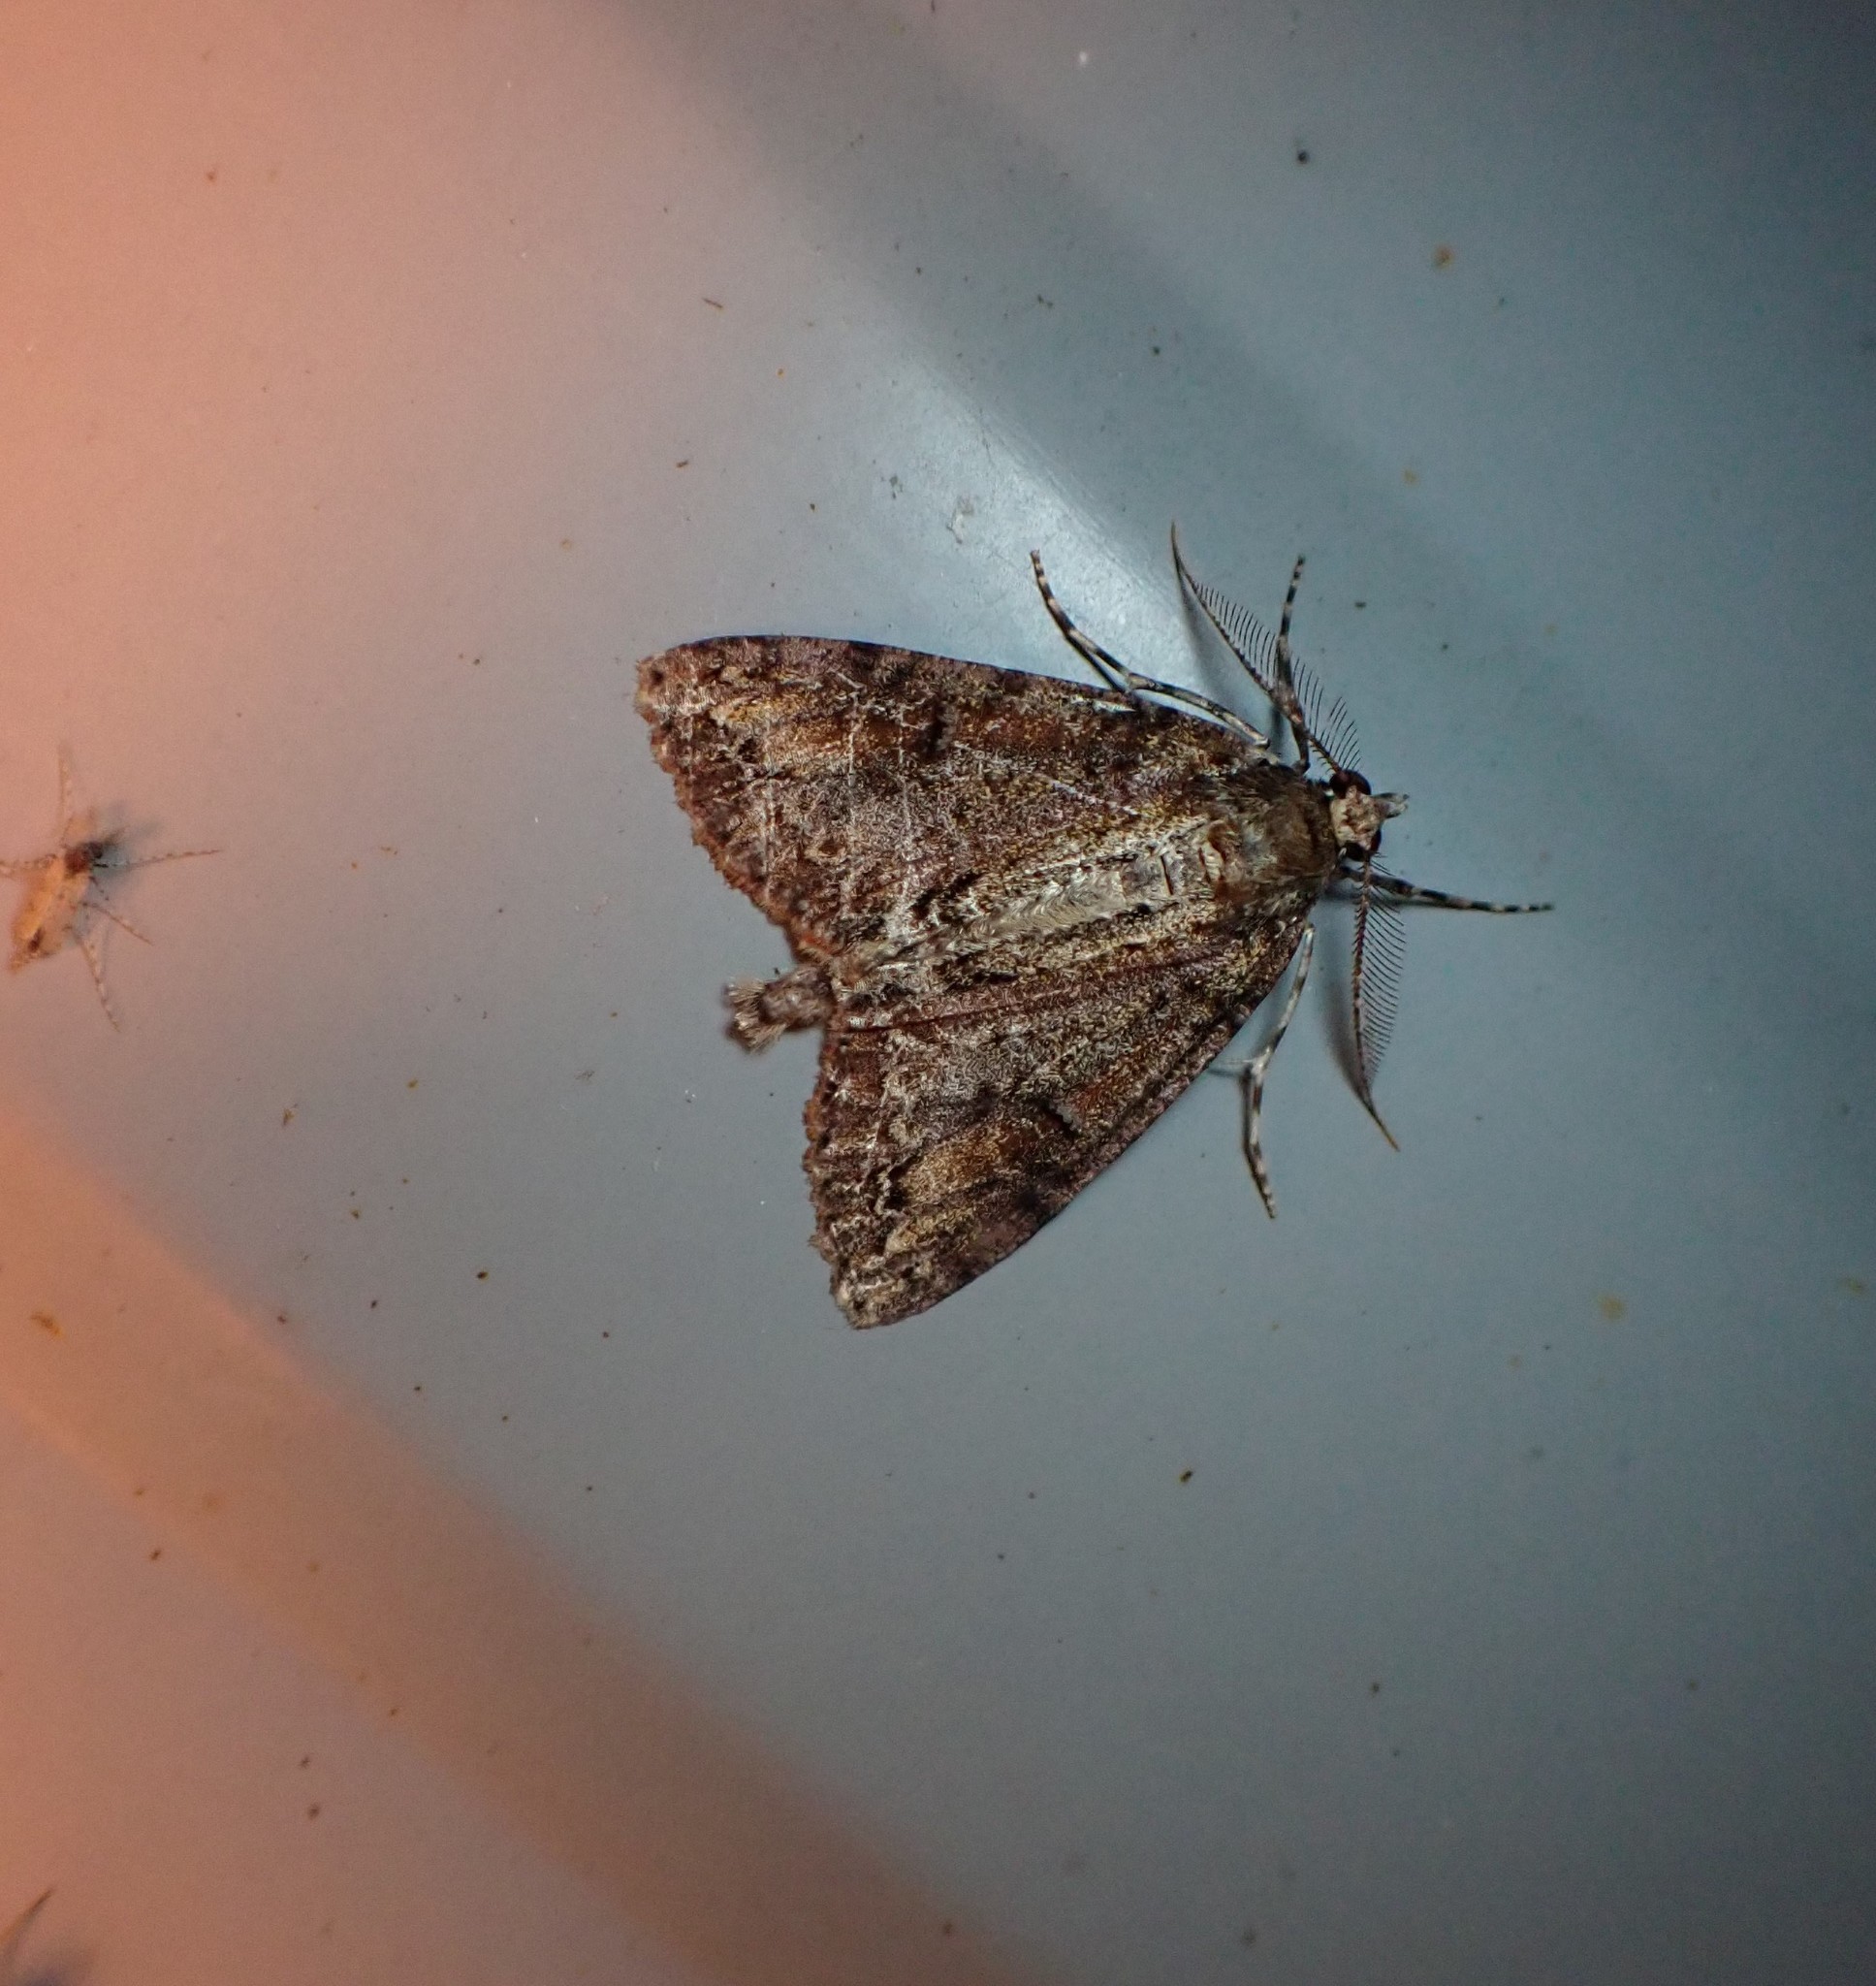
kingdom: Animalia
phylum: Arthropoda
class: Insecta
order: Lepidoptera
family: Geometridae
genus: Pseudocoremia
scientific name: Pseudocoremia suavis
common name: Common forest looper
